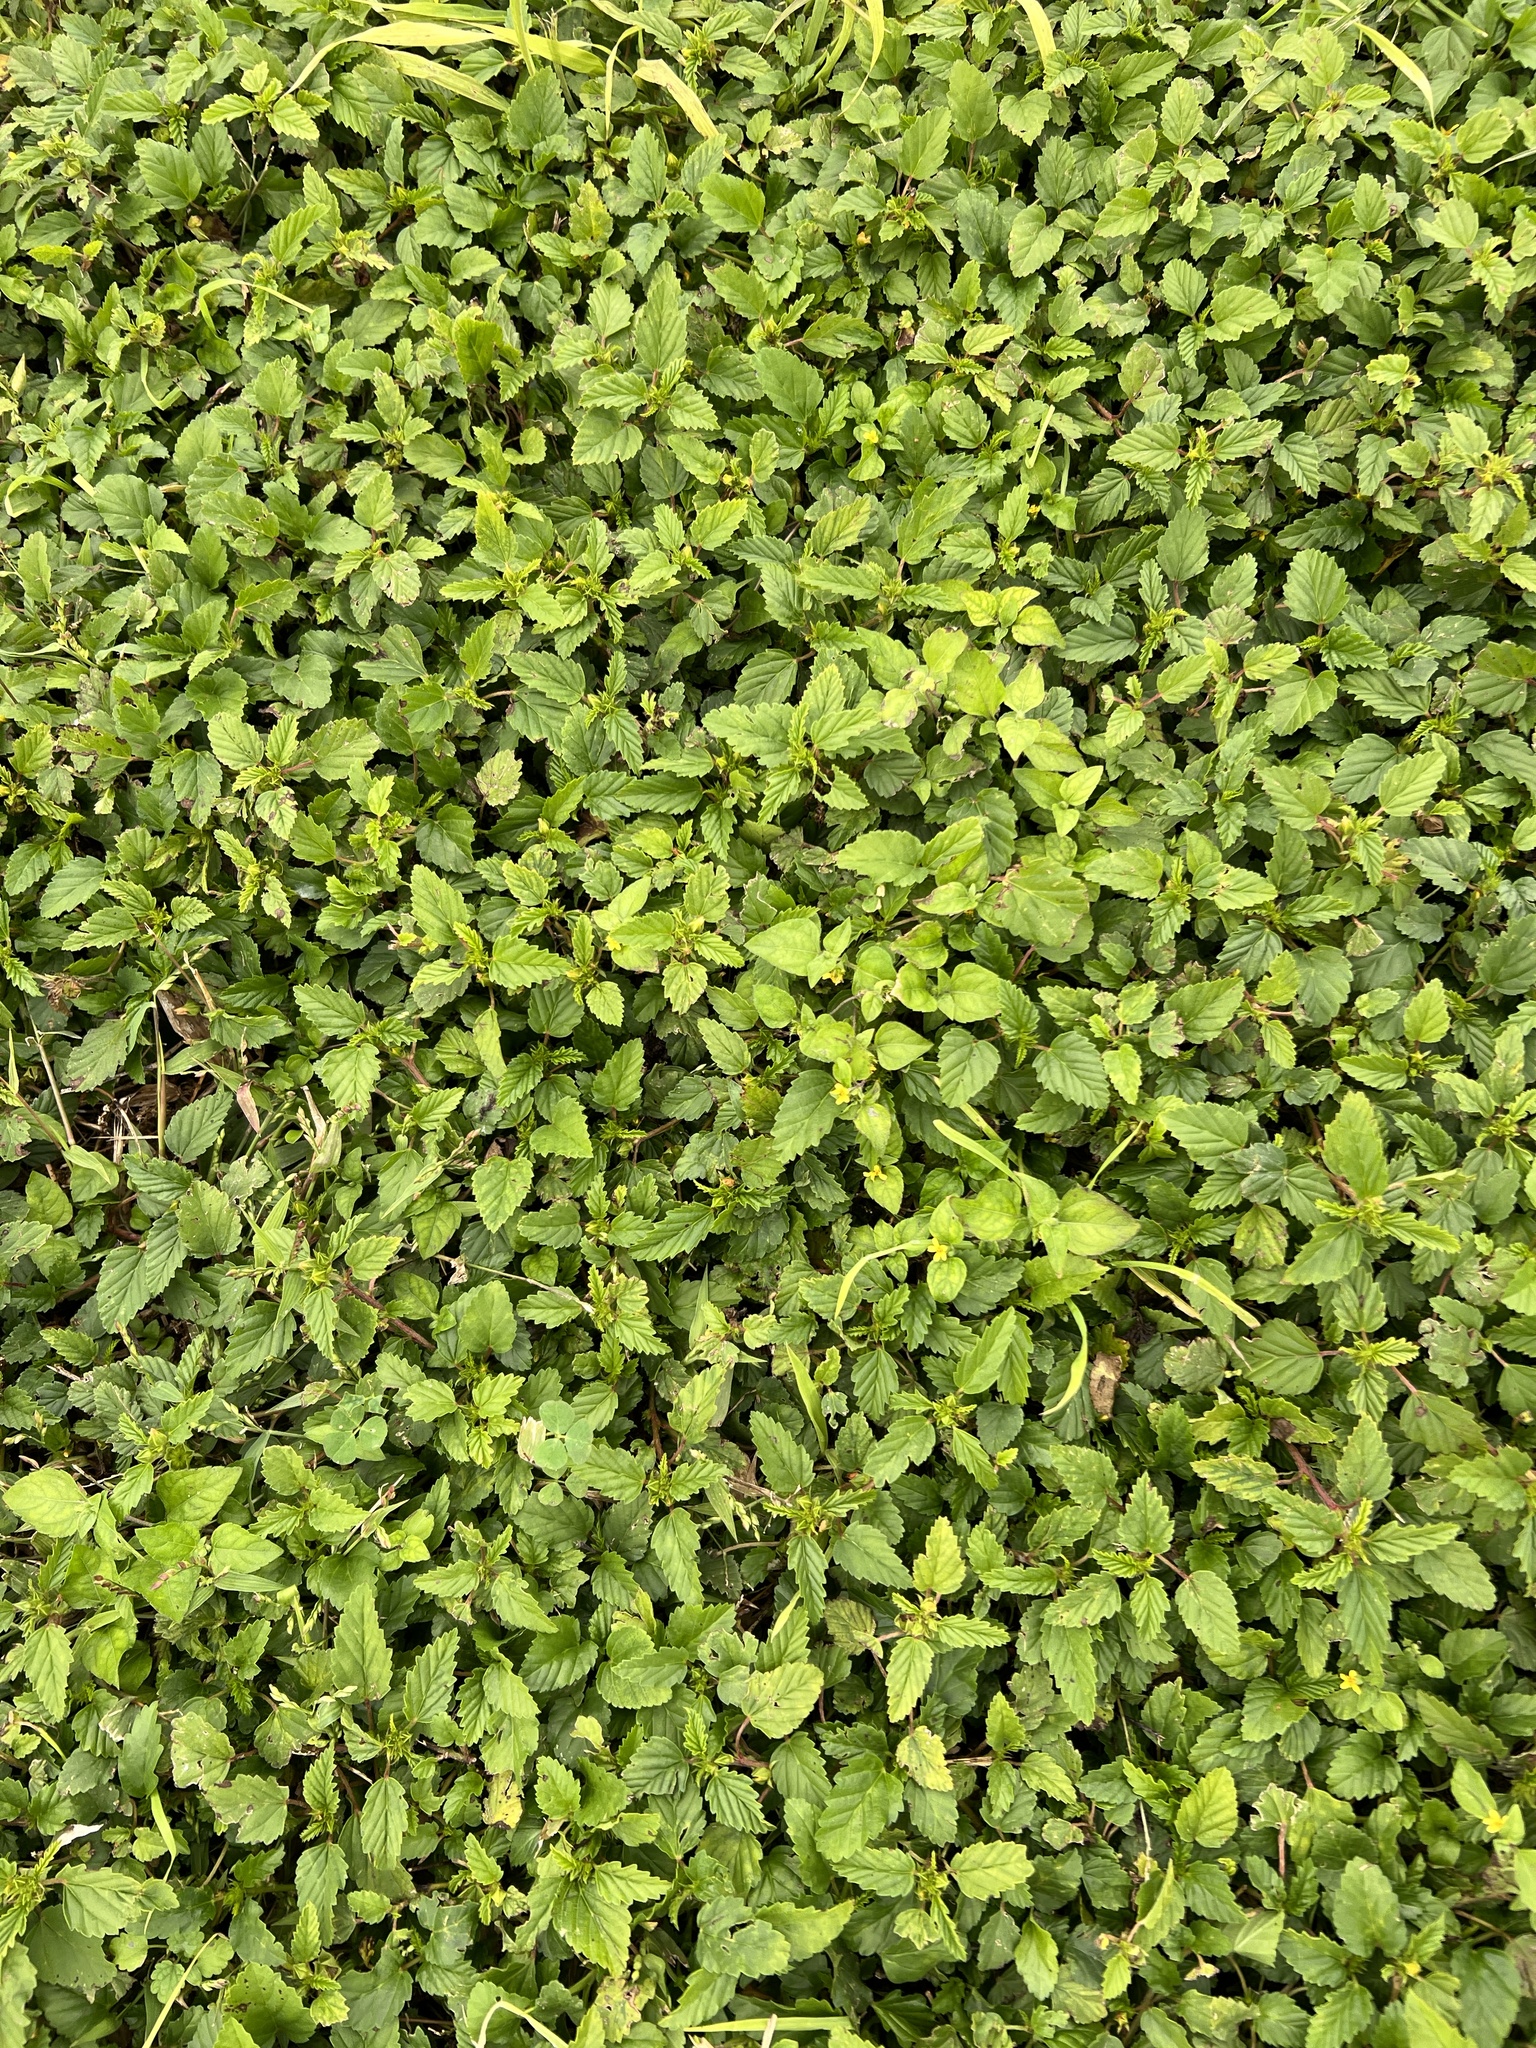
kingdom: Plantae
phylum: Tracheophyta
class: Magnoliopsida
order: Asterales
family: Asteraceae
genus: Calyptocarpus
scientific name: Calyptocarpus vialis
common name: Straggler daisy
